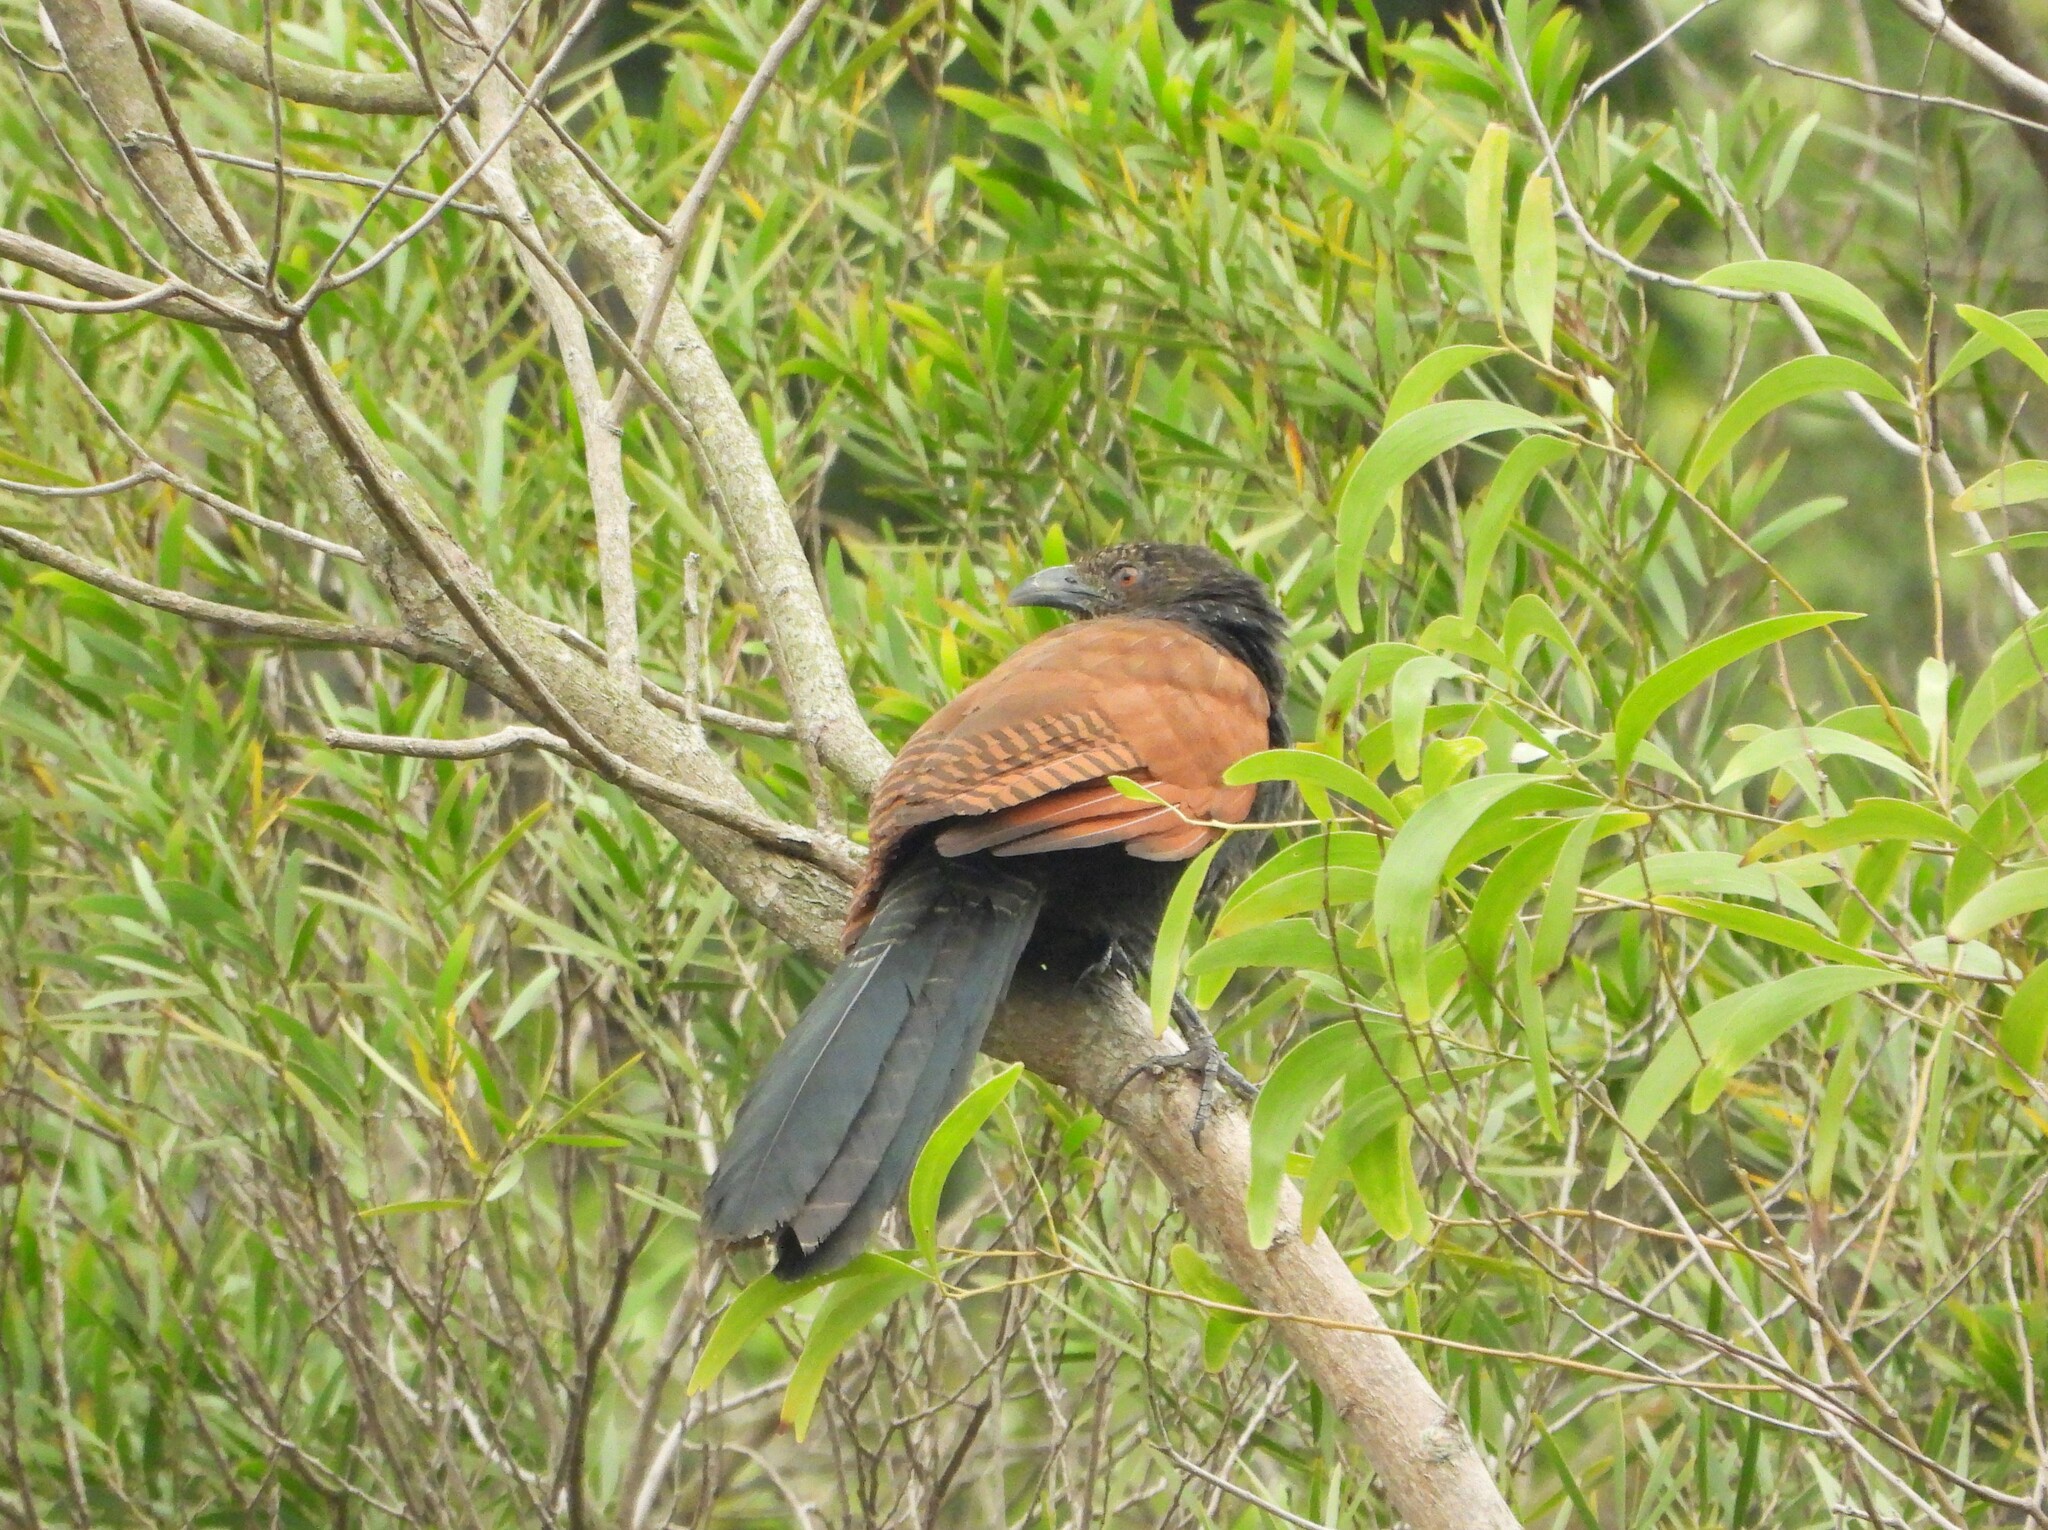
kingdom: Animalia
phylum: Chordata
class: Aves
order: Cuculiformes
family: Cuculidae
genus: Centropus
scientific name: Centropus sinensis
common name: Greater coucal
